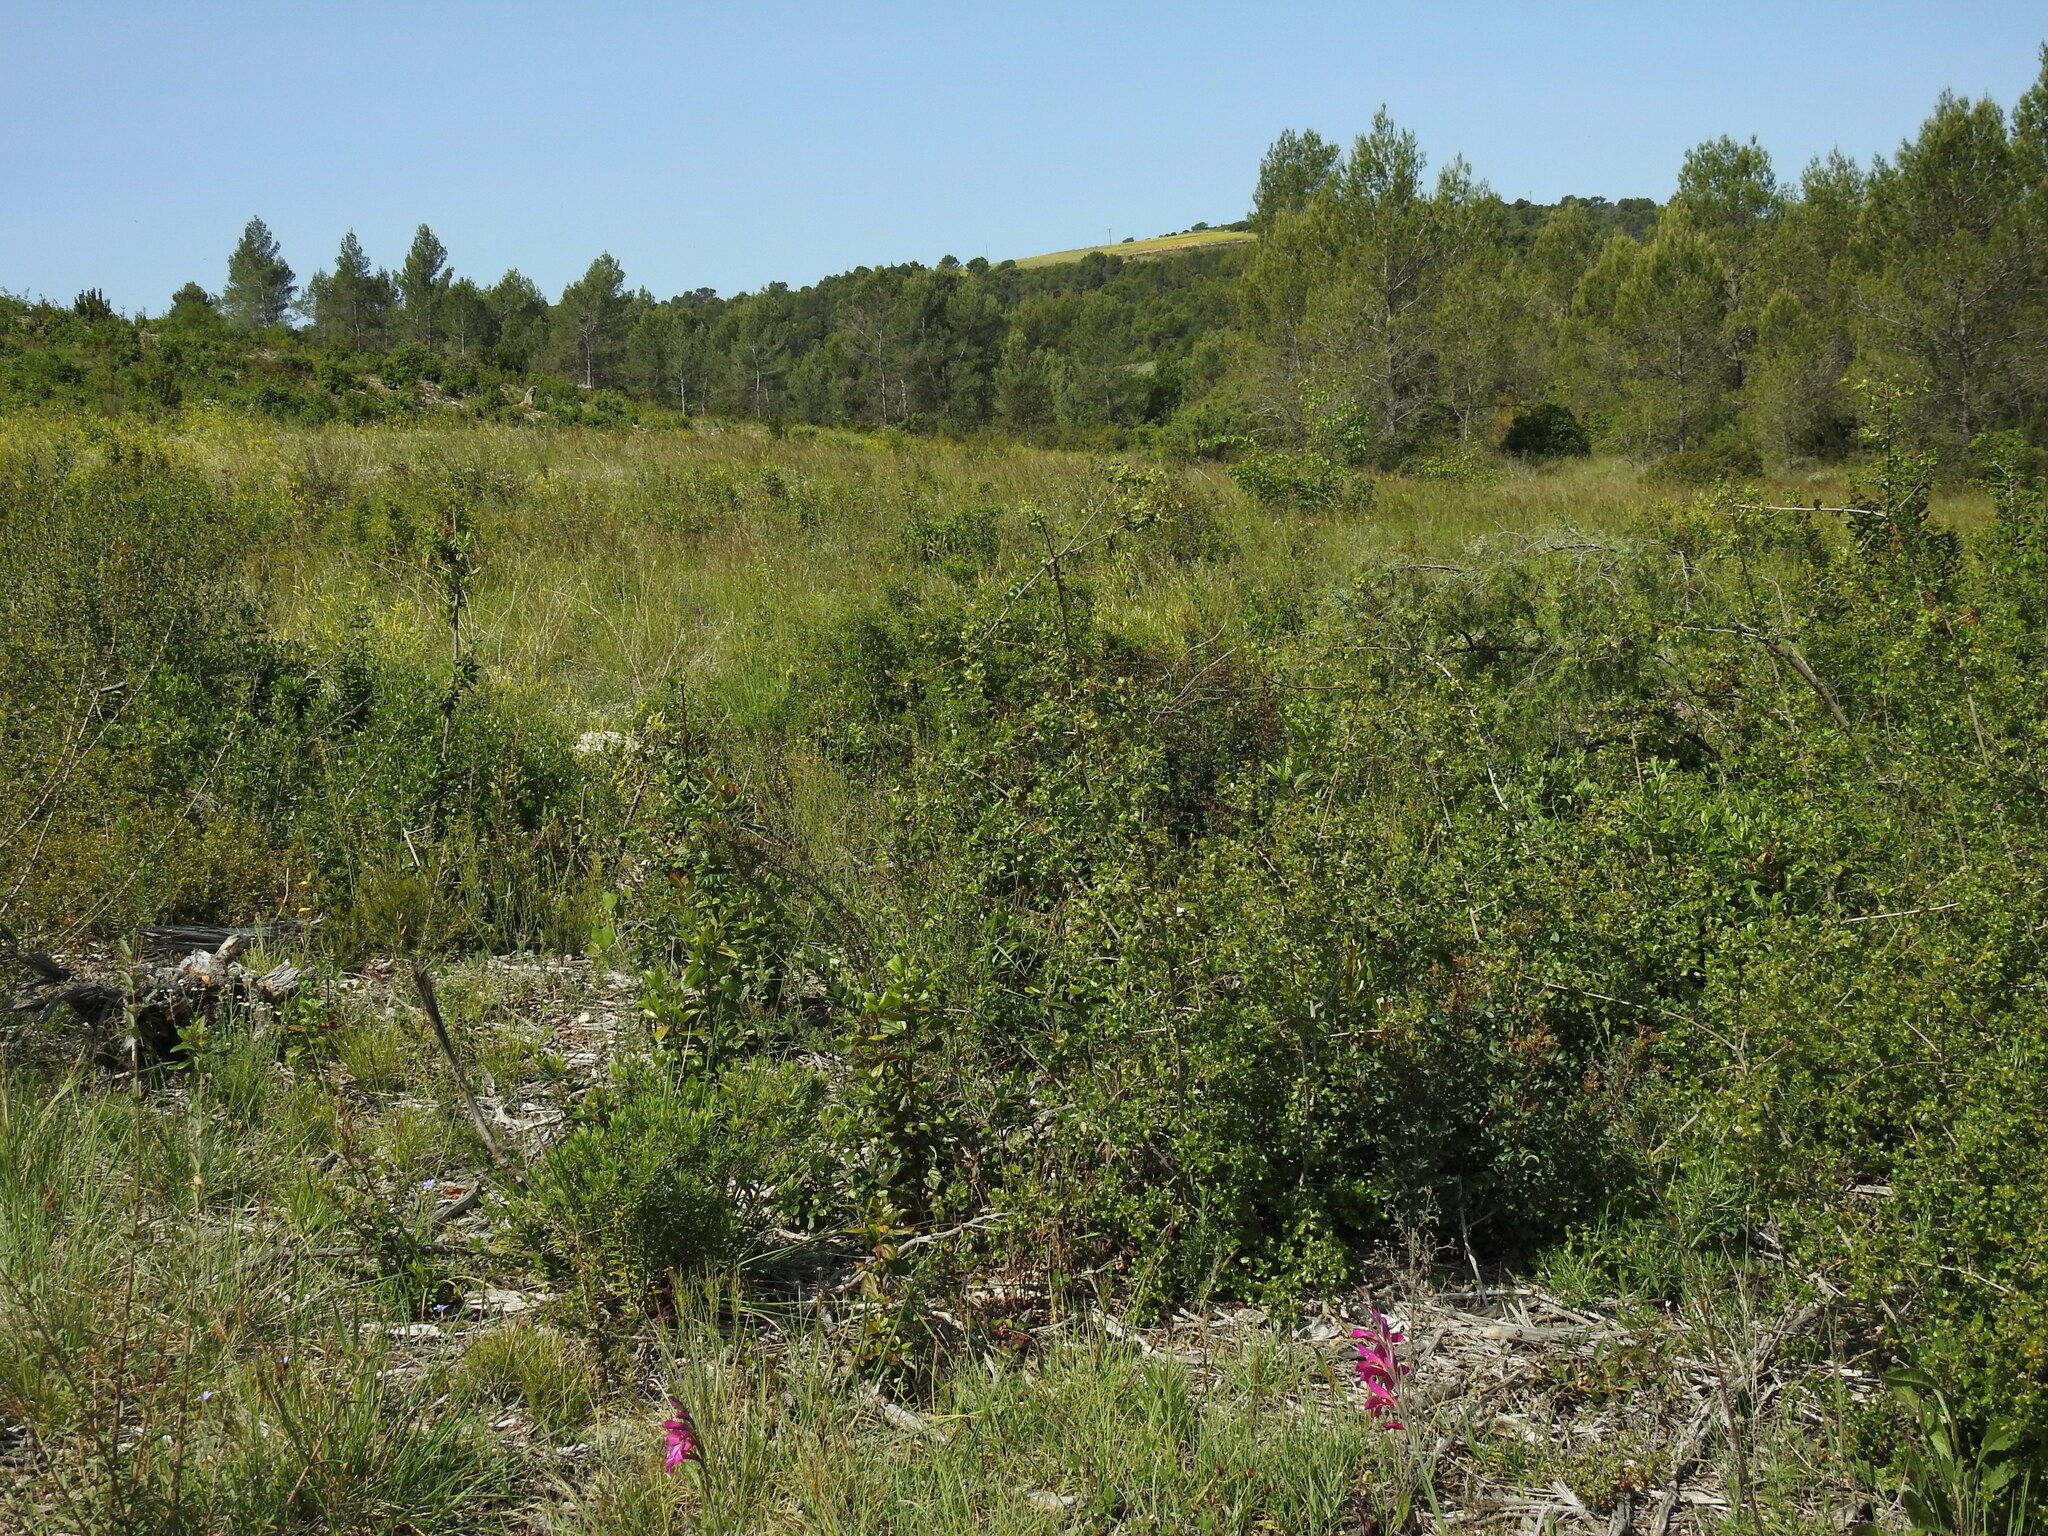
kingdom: Plantae
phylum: Tracheophyta
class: Liliopsida
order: Asparagales
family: Iridaceae
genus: Gladiolus
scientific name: Gladiolus dubius
